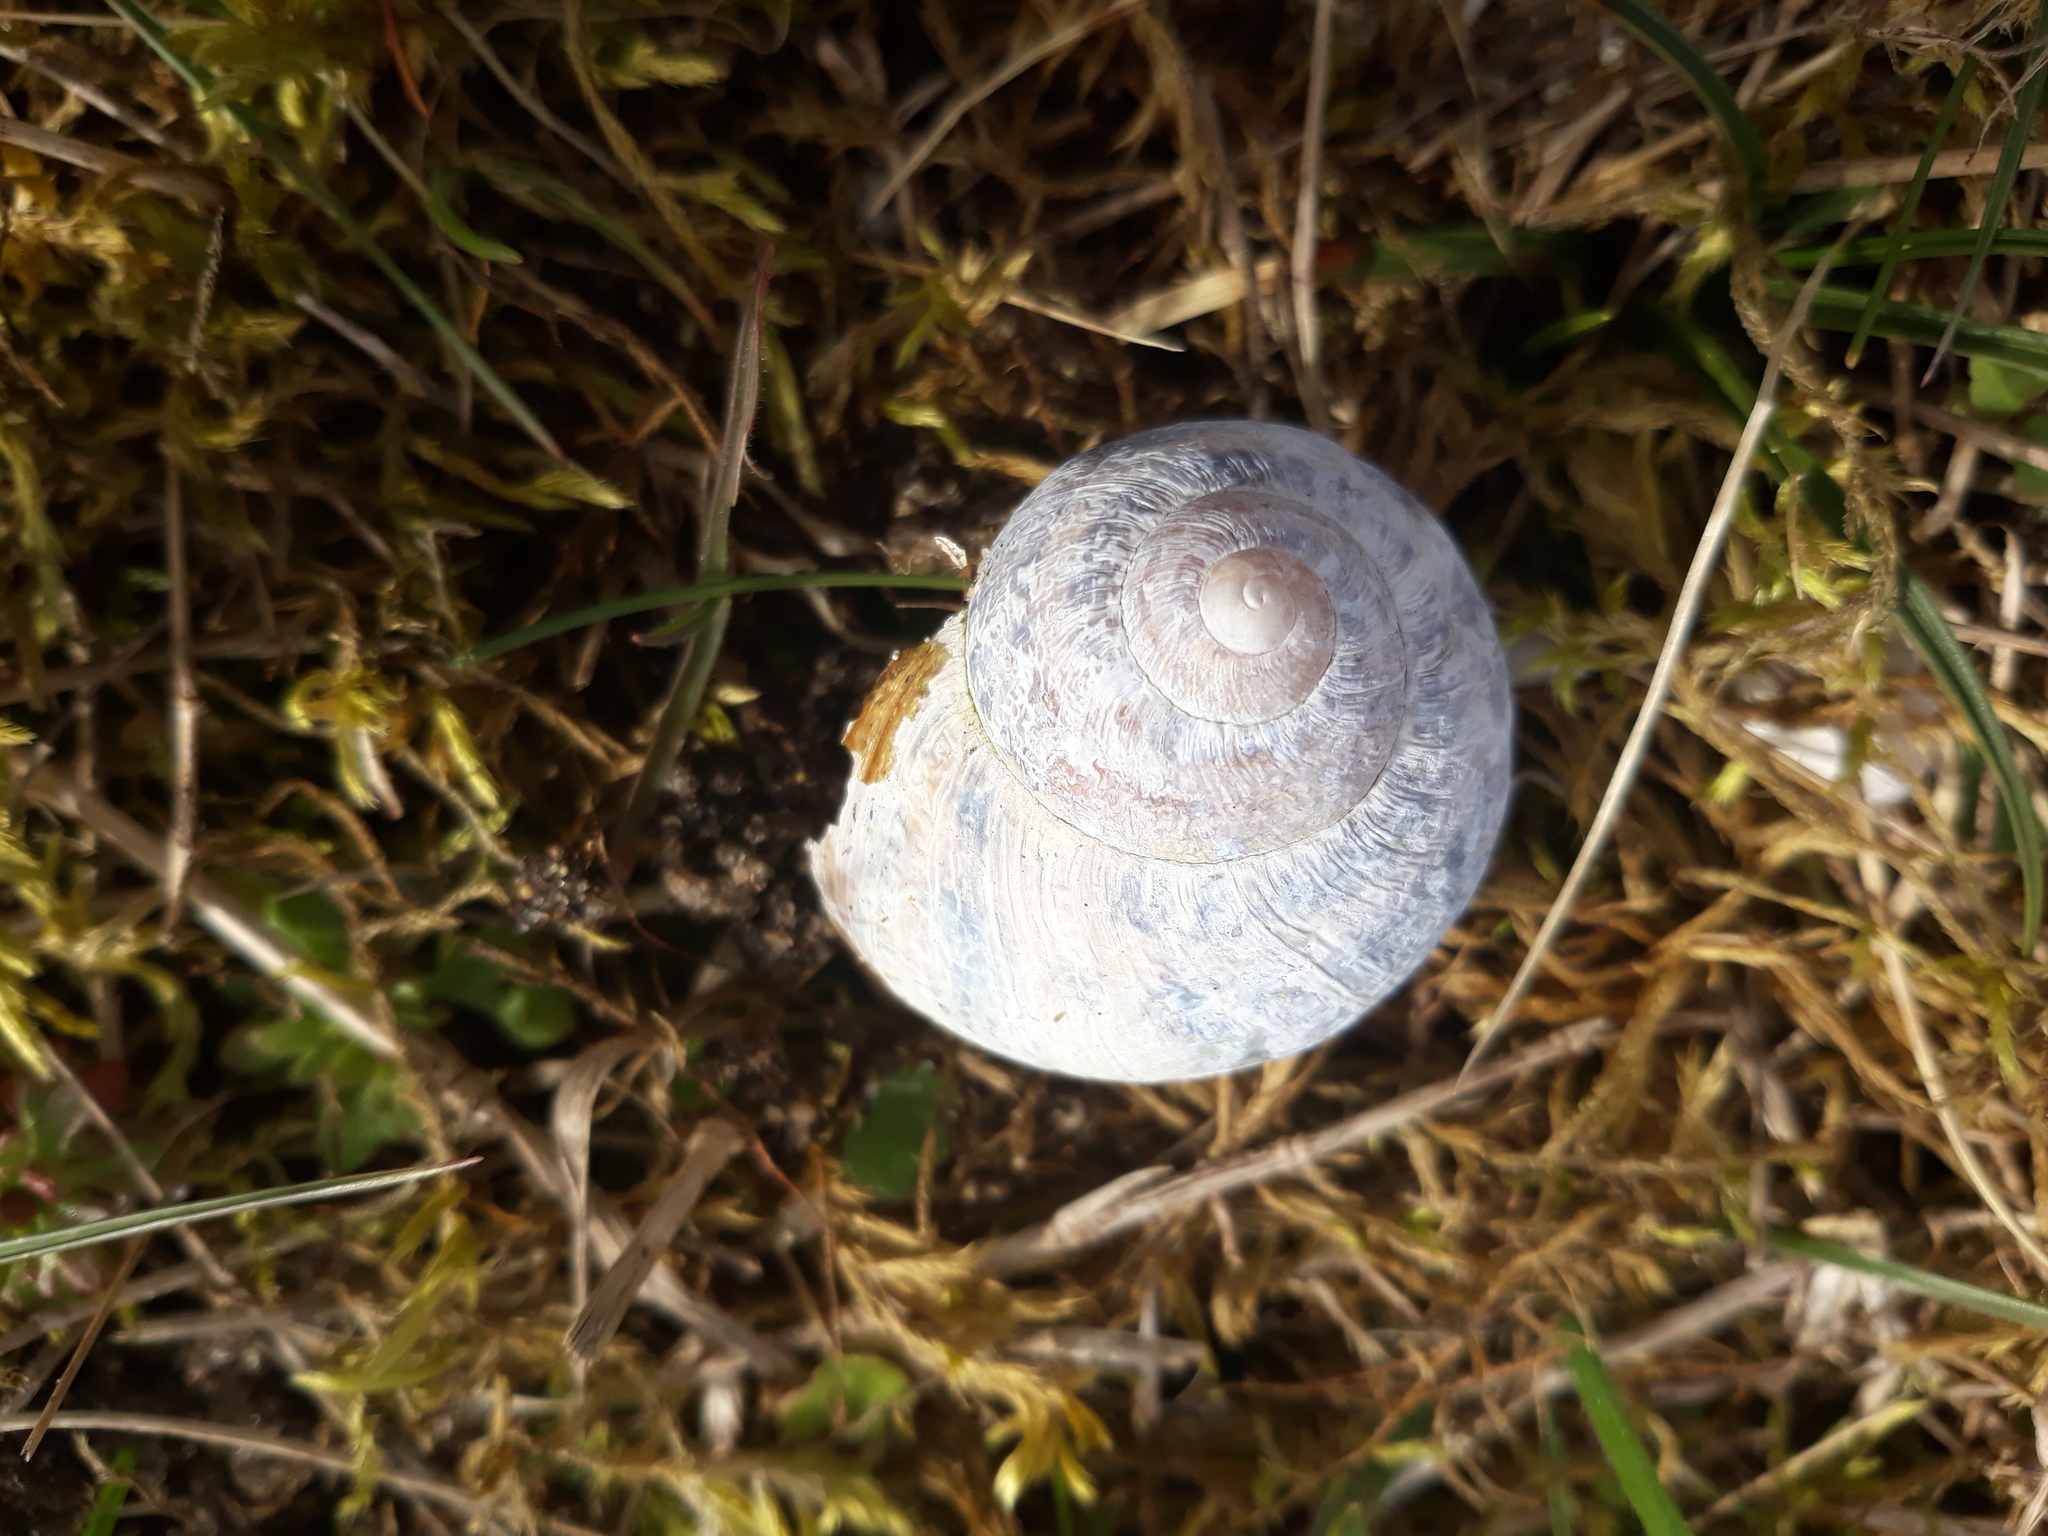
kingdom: Animalia
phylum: Mollusca
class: Gastropoda
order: Stylommatophora
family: Helicidae
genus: Cornu
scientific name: Cornu aspersum
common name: Brown garden snail
